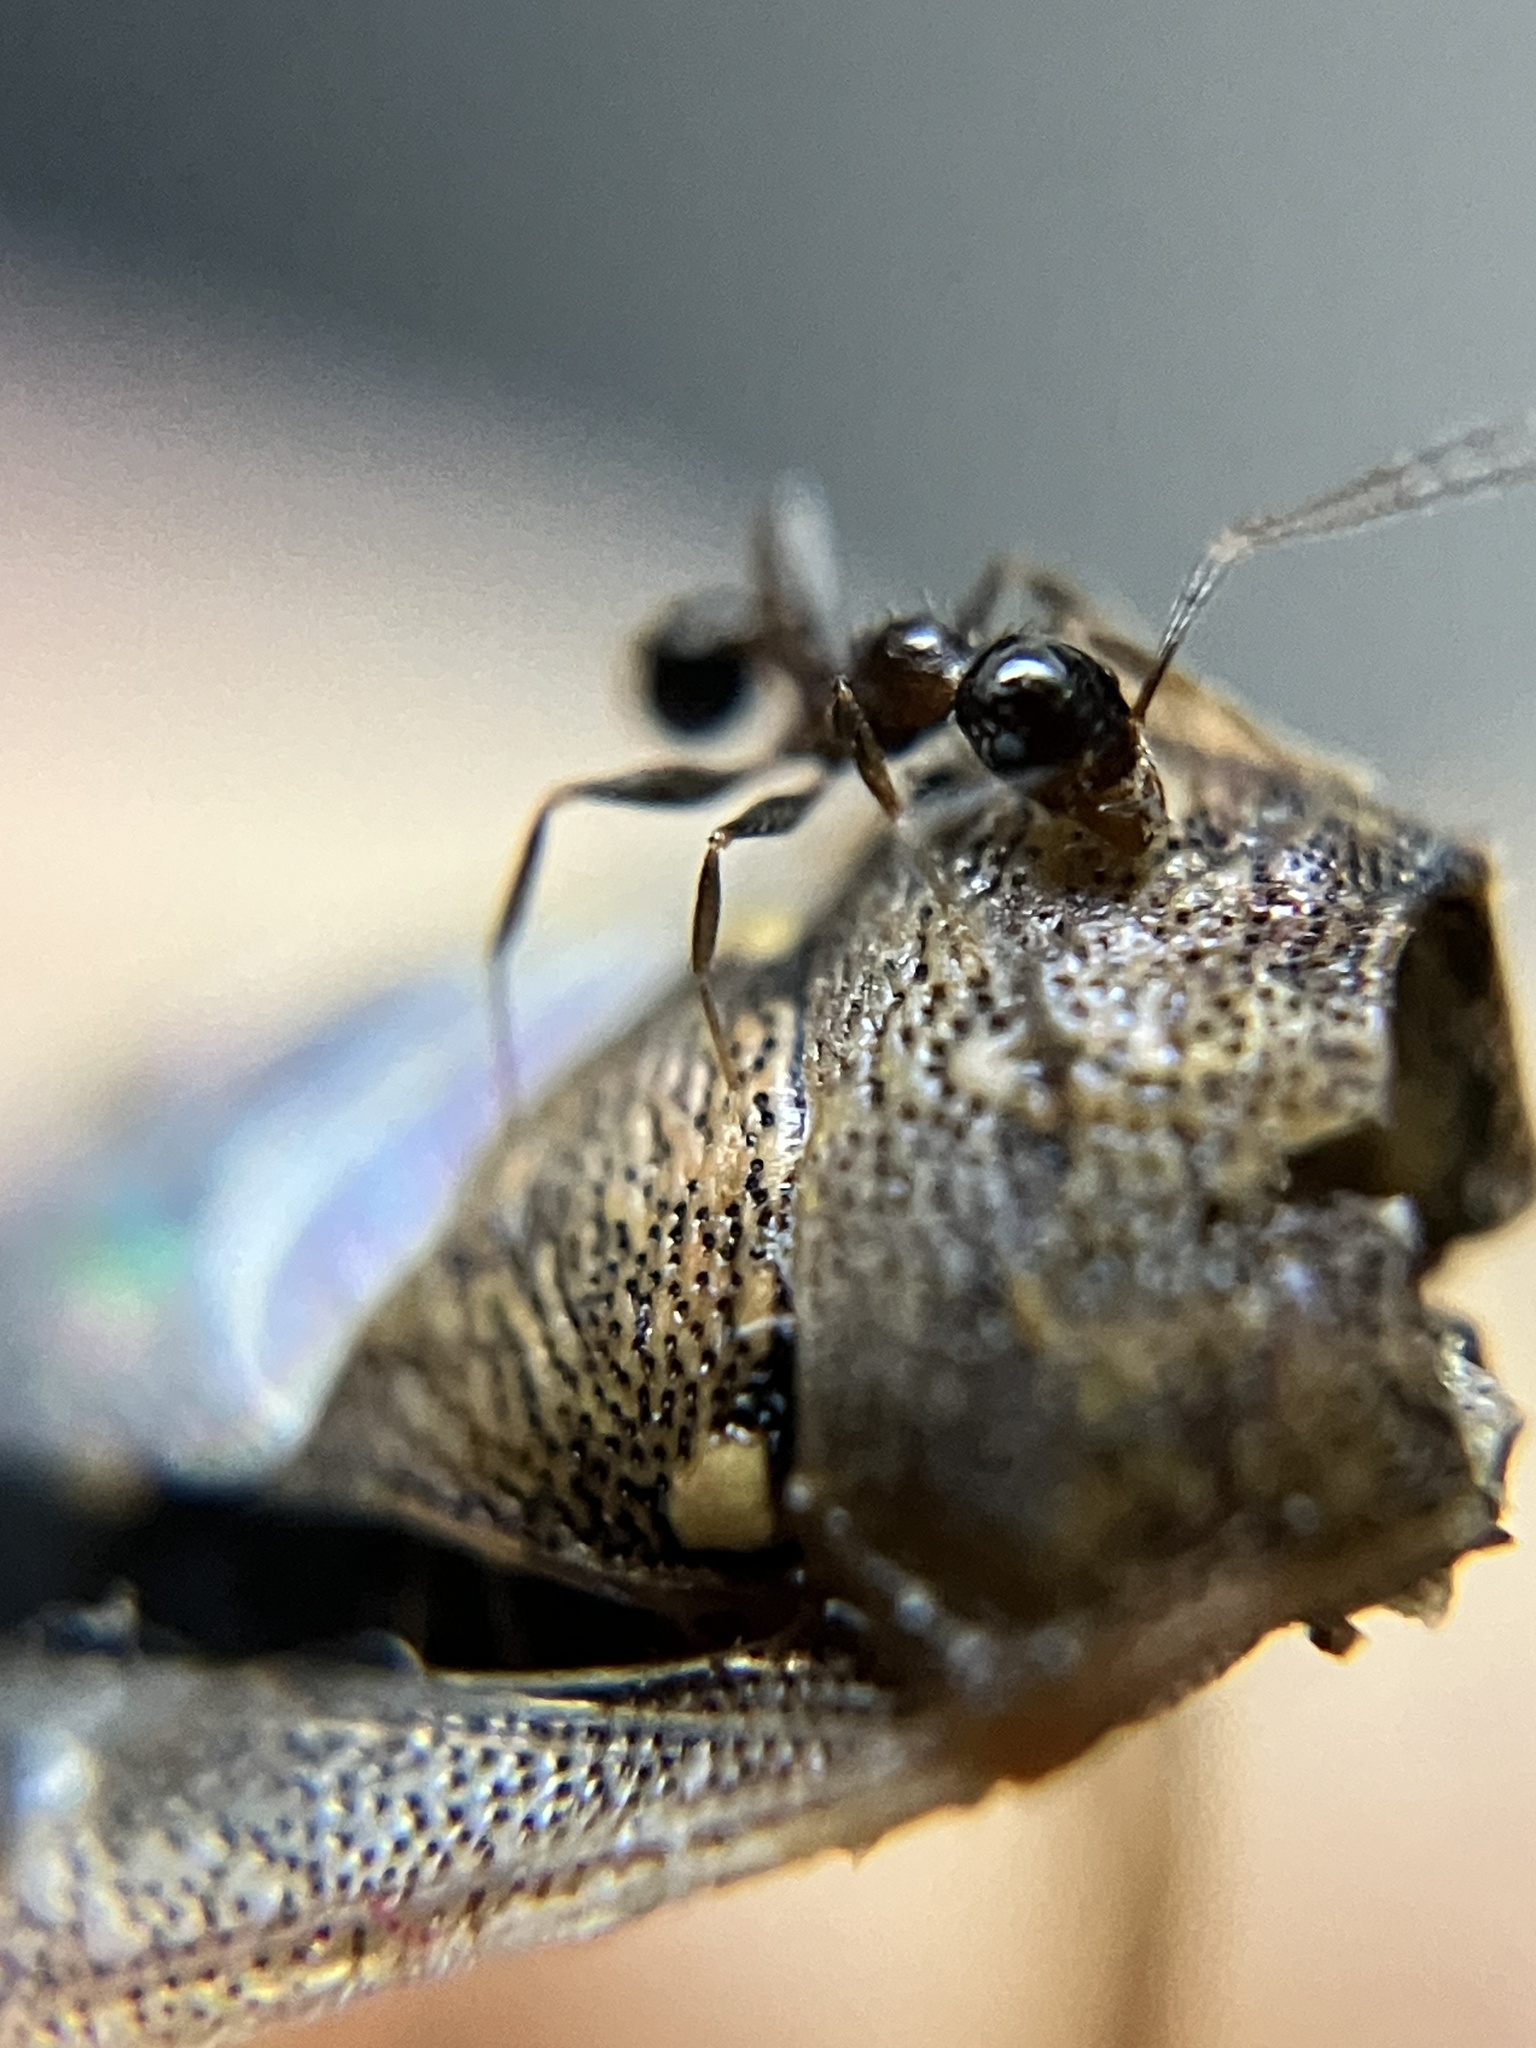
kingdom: Animalia
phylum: Arthropoda
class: Insecta
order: Hymenoptera
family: Formicidae
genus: Pheidole
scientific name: Pheidole indica
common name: Big-headed ant
